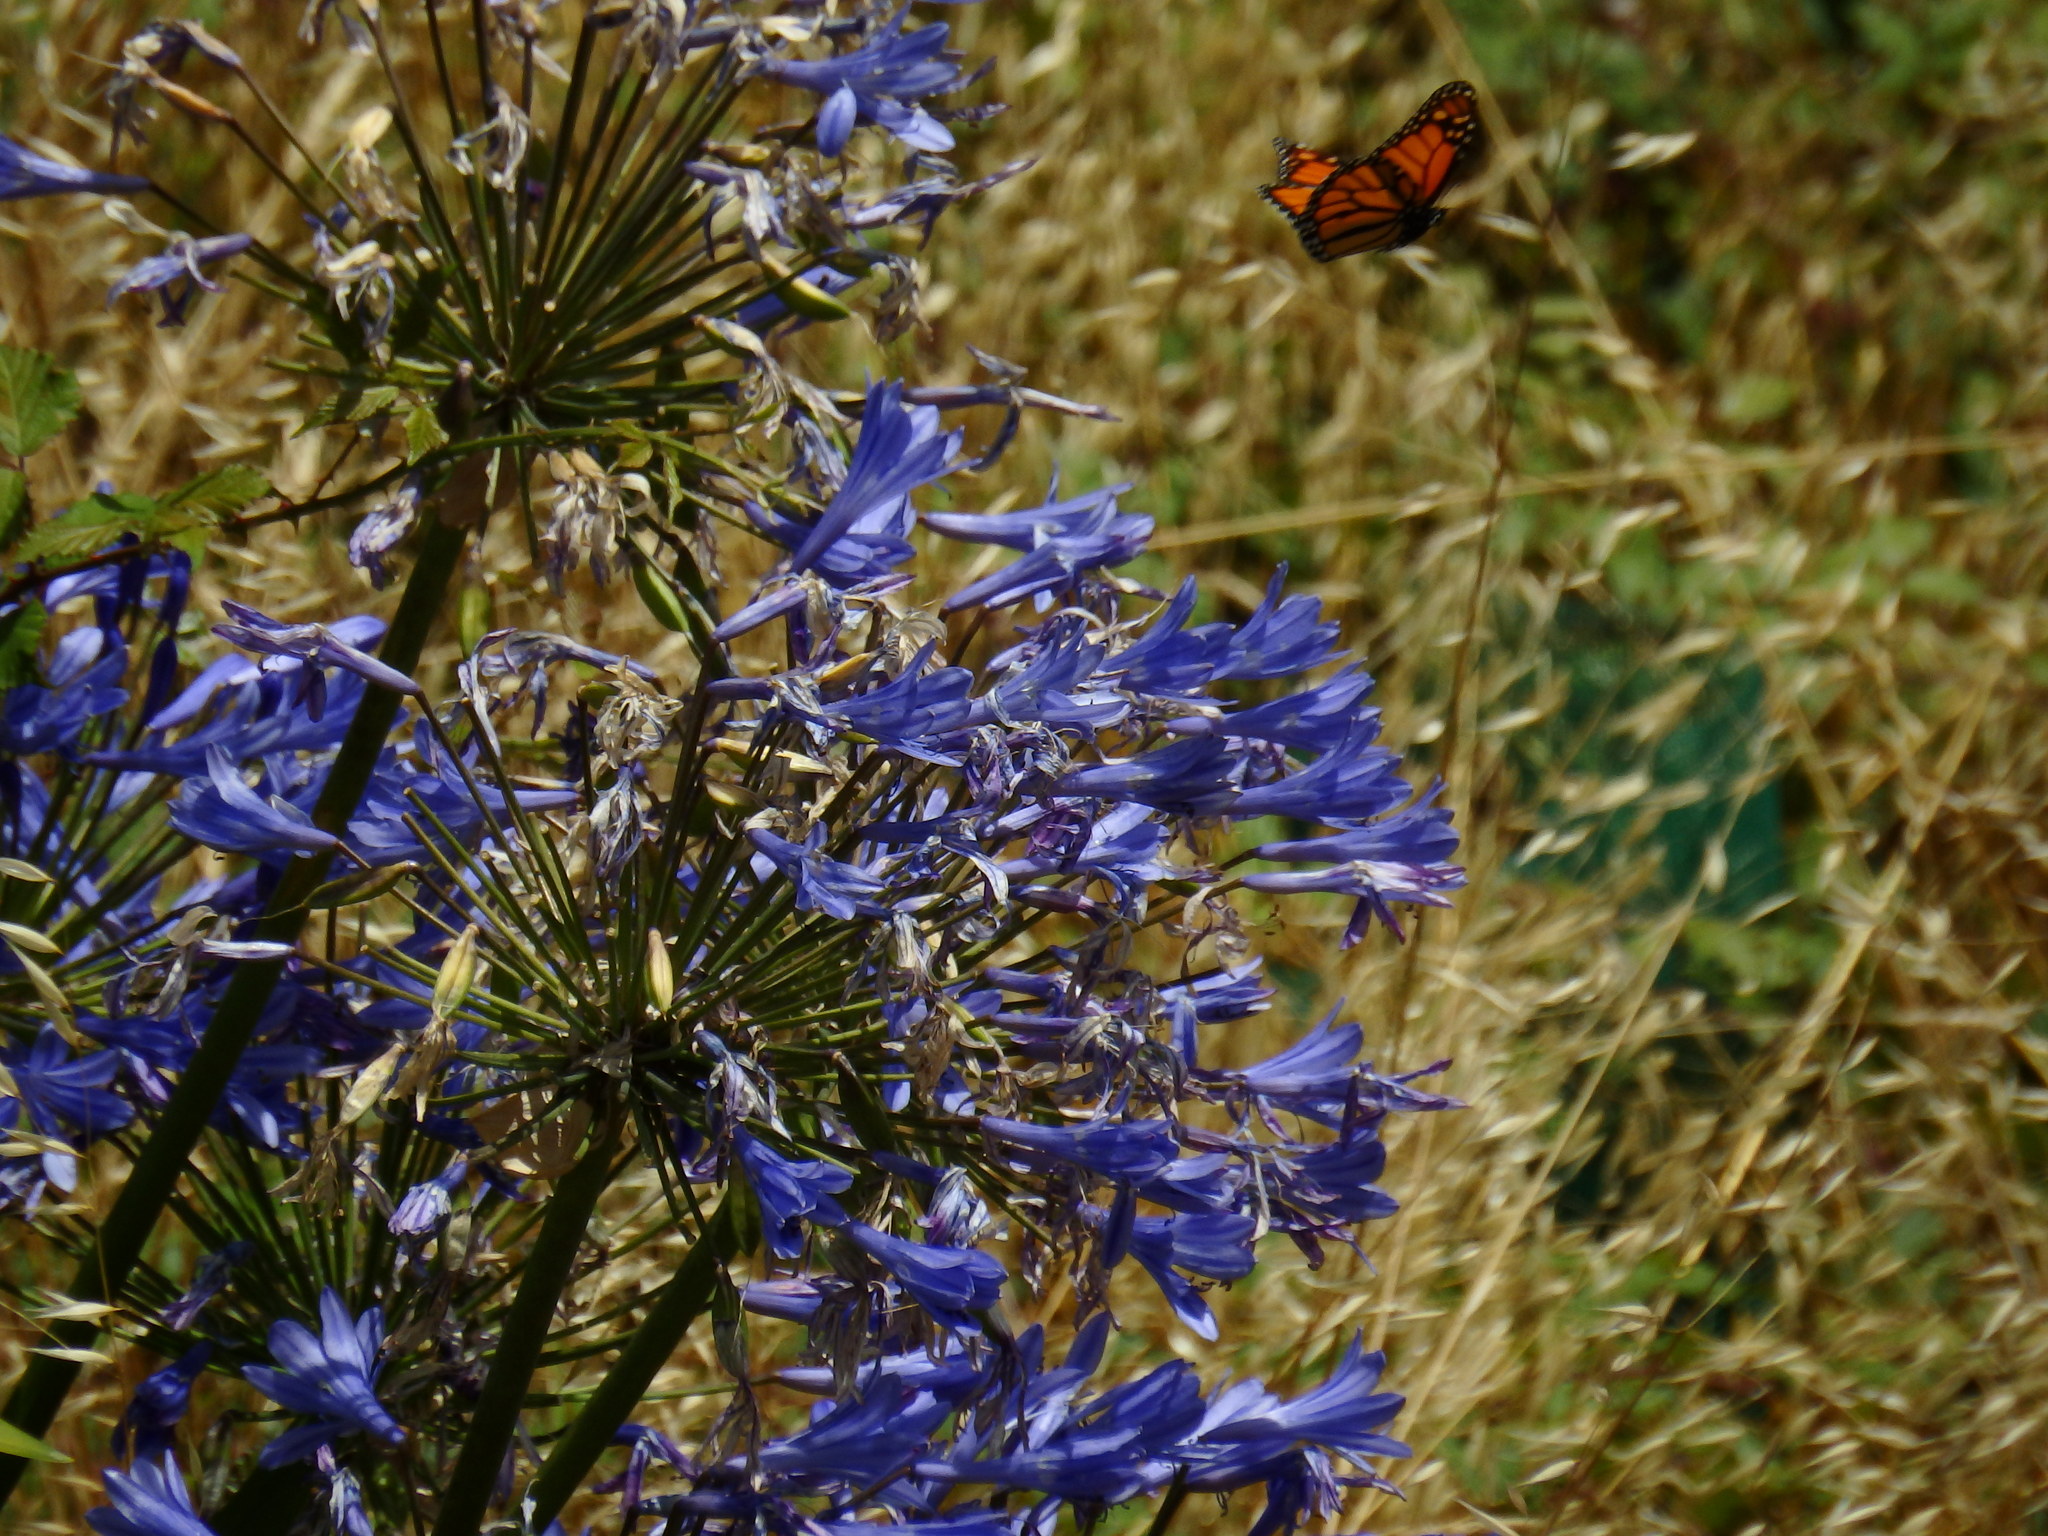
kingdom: Animalia
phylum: Arthropoda
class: Insecta
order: Lepidoptera
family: Nymphalidae
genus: Danaus
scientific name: Danaus plexippus
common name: Monarch
